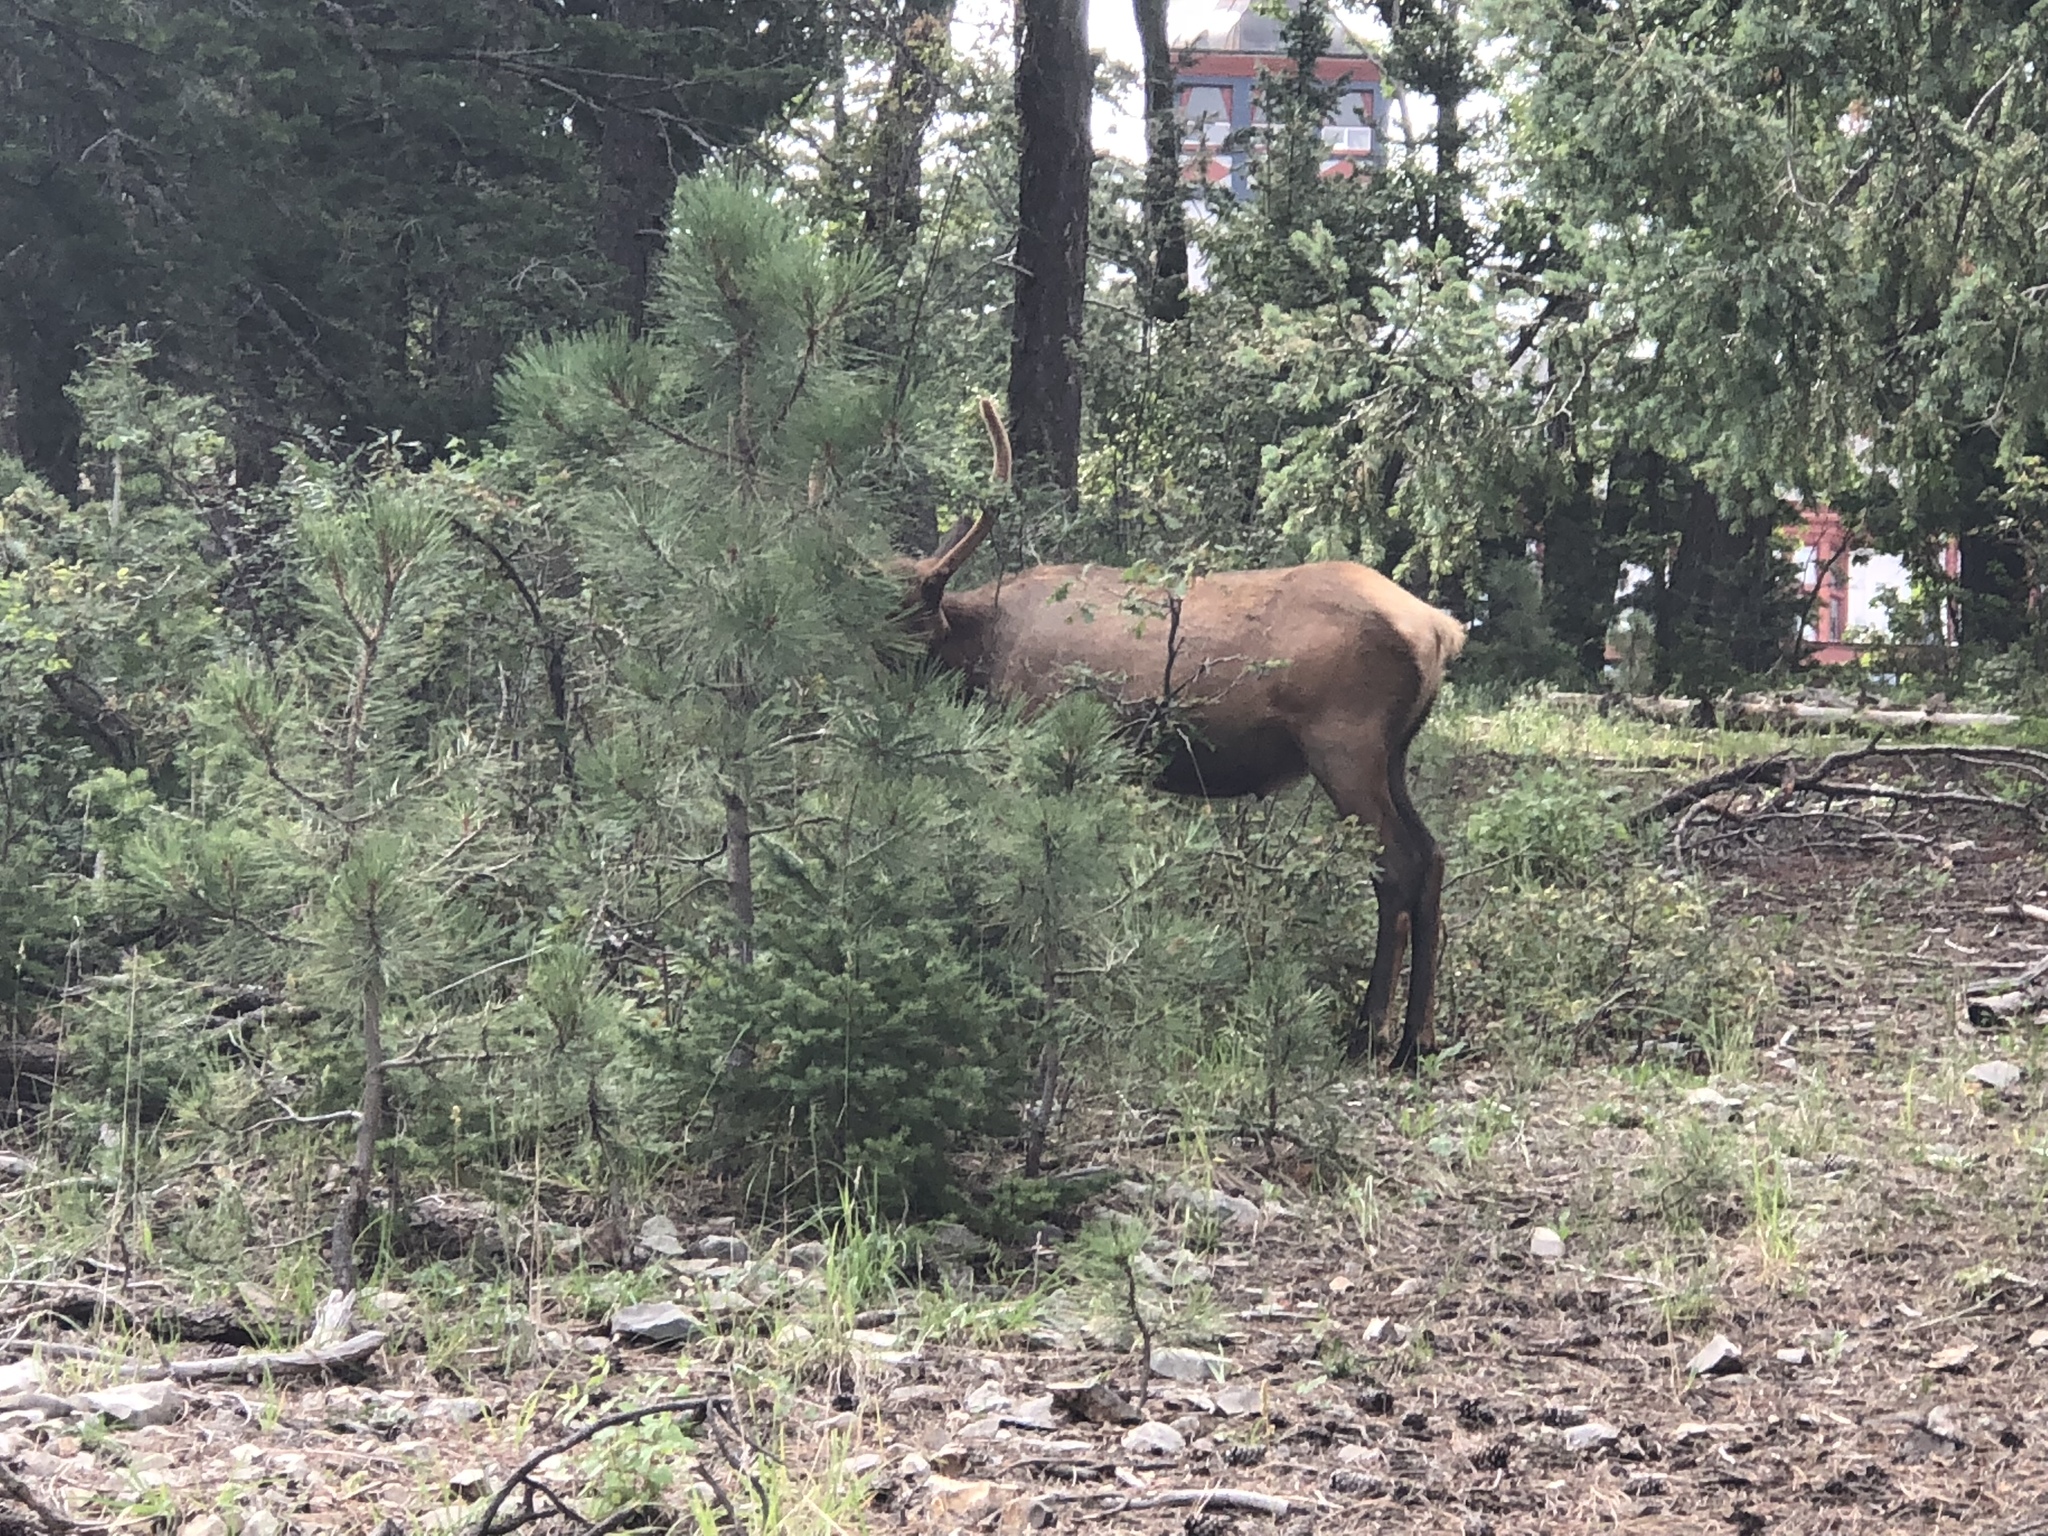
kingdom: Animalia
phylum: Chordata
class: Mammalia
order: Artiodactyla
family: Cervidae
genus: Cervus
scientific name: Cervus elaphus
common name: Red deer
